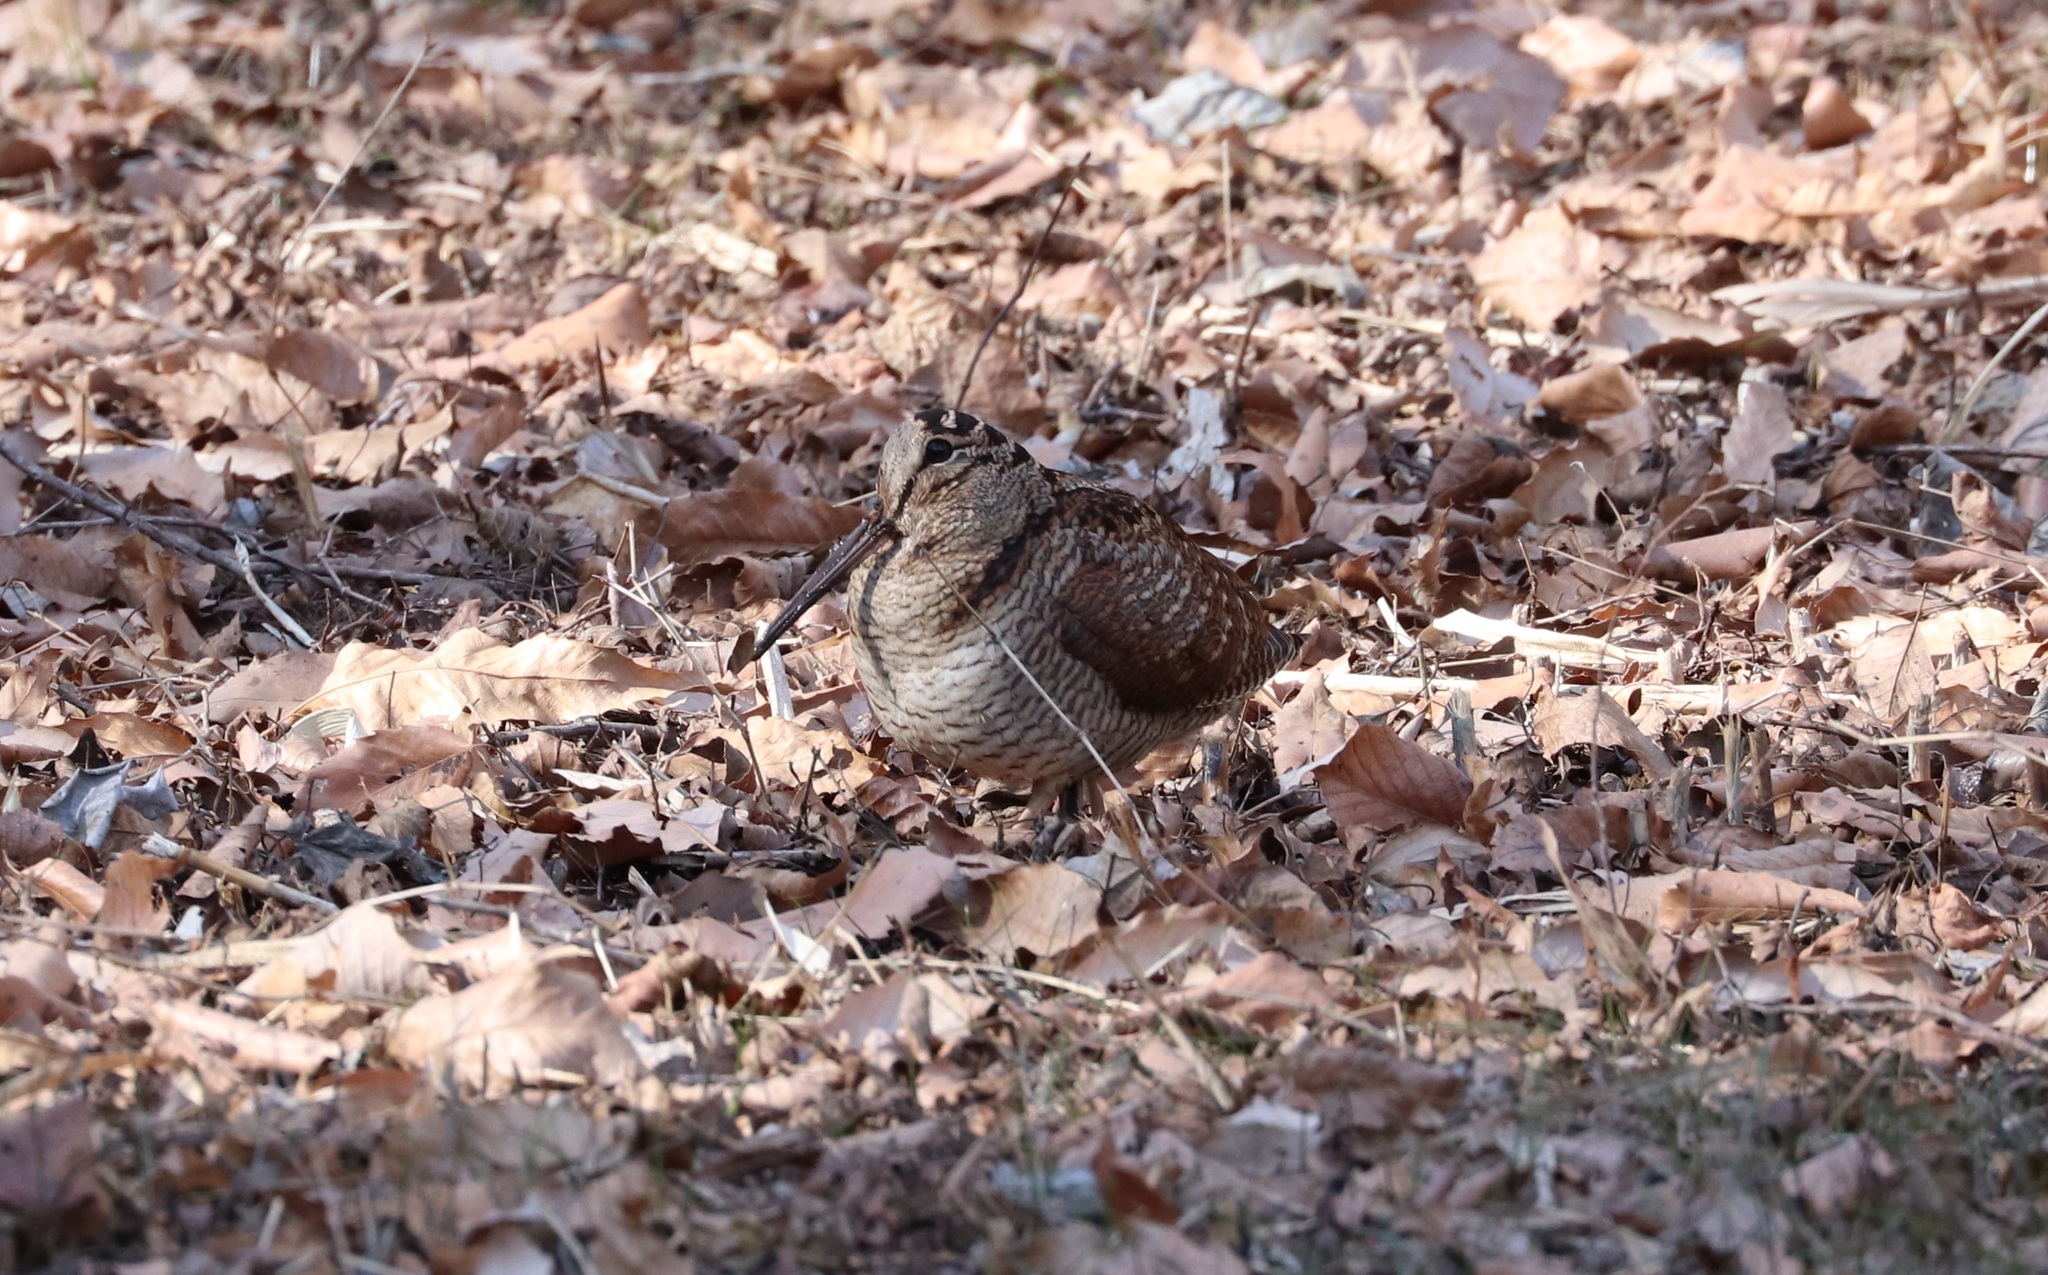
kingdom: Animalia
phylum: Chordata
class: Aves
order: Charadriiformes
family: Scolopacidae
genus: Scolopax
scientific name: Scolopax rusticola
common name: Eurasian woodcock
